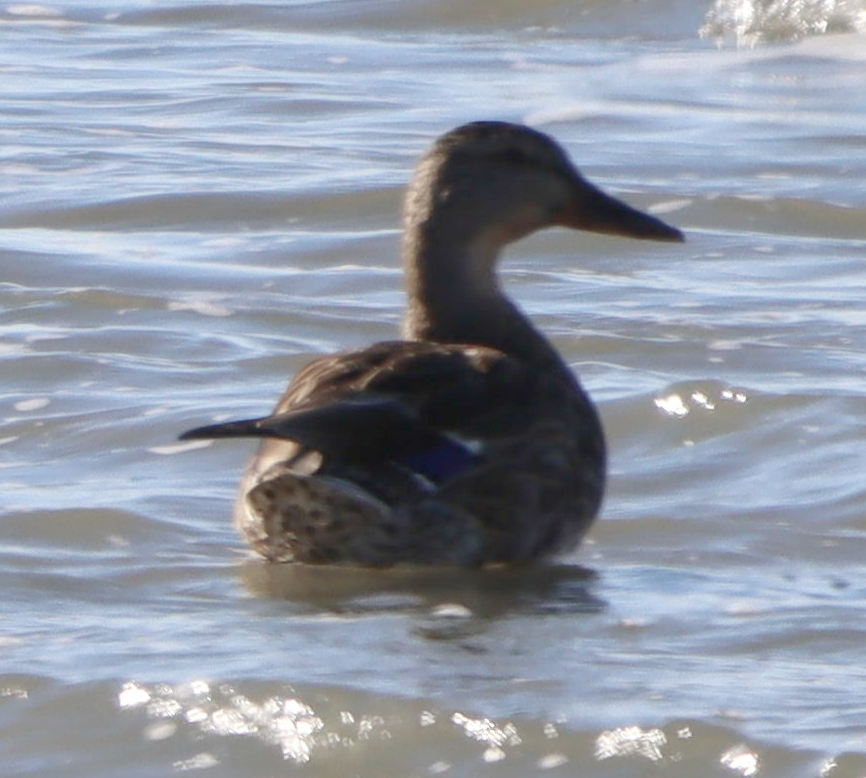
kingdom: Animalia
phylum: Chordata
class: Aves
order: Anseriformes
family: Anatidae
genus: Anas
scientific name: Anas platyrhynchos
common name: Mallard
